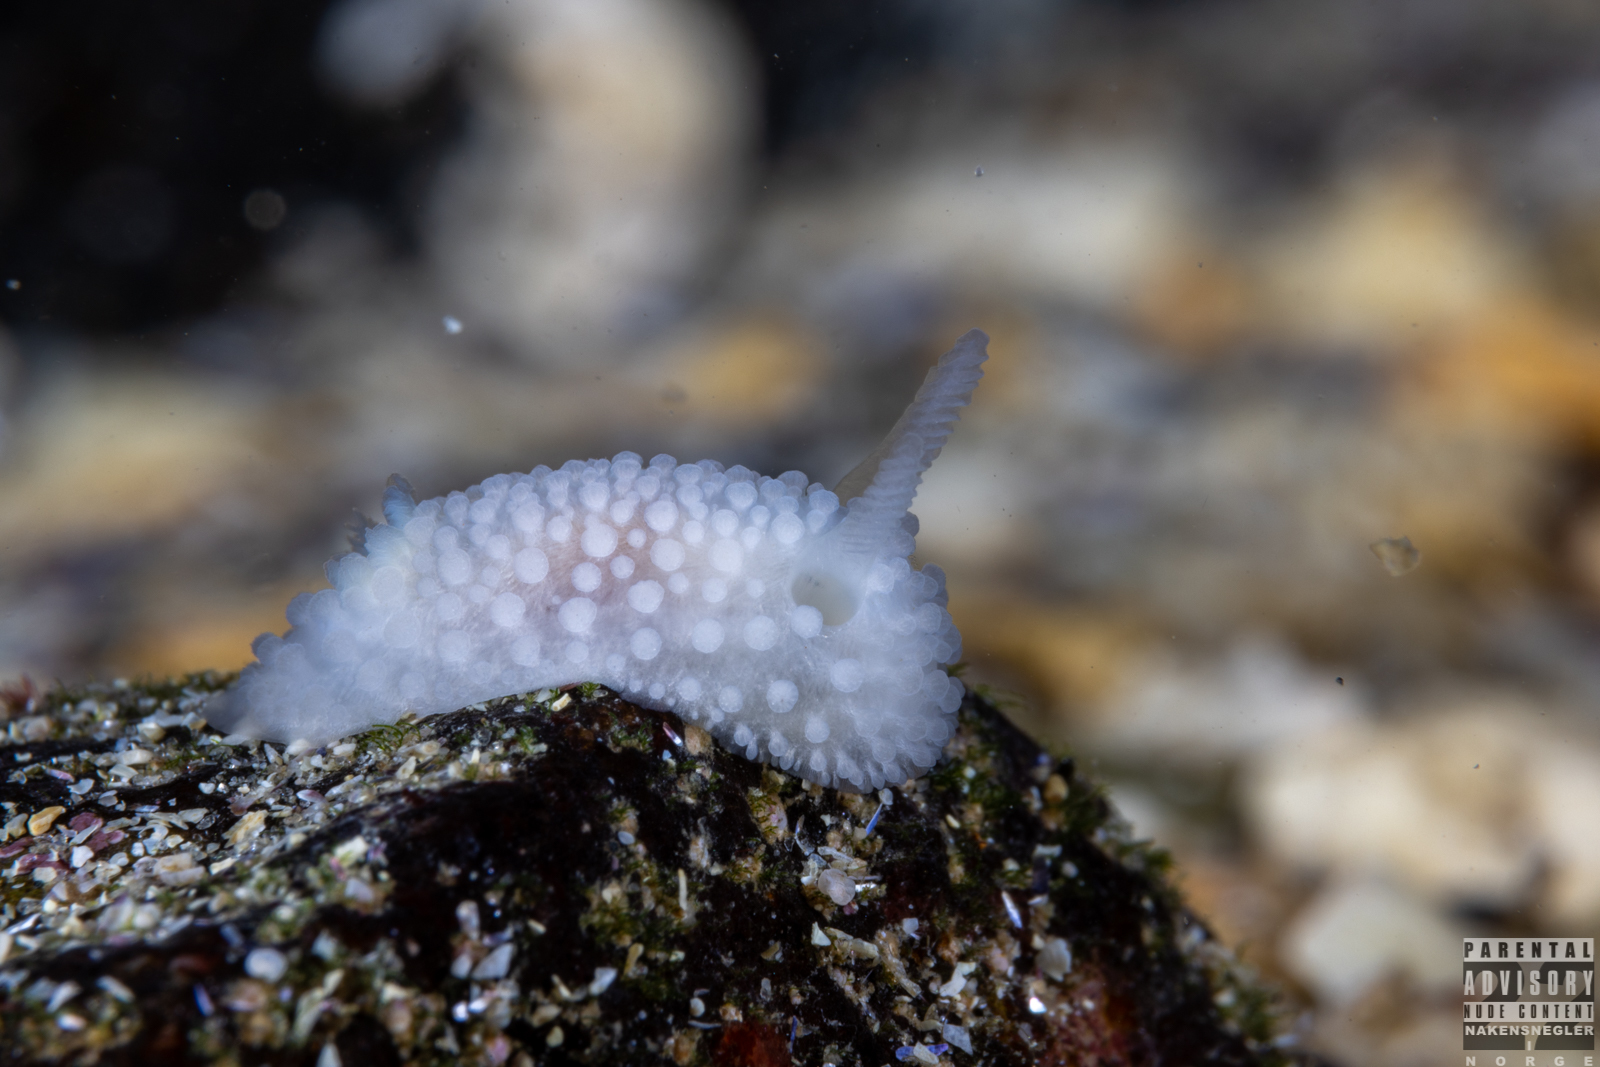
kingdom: Animalia
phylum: Mollusca
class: Gastropoda
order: Nudibranchia
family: Onchidorididae
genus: Onchidoris
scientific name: Onchidoris muricata
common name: Rough doris
